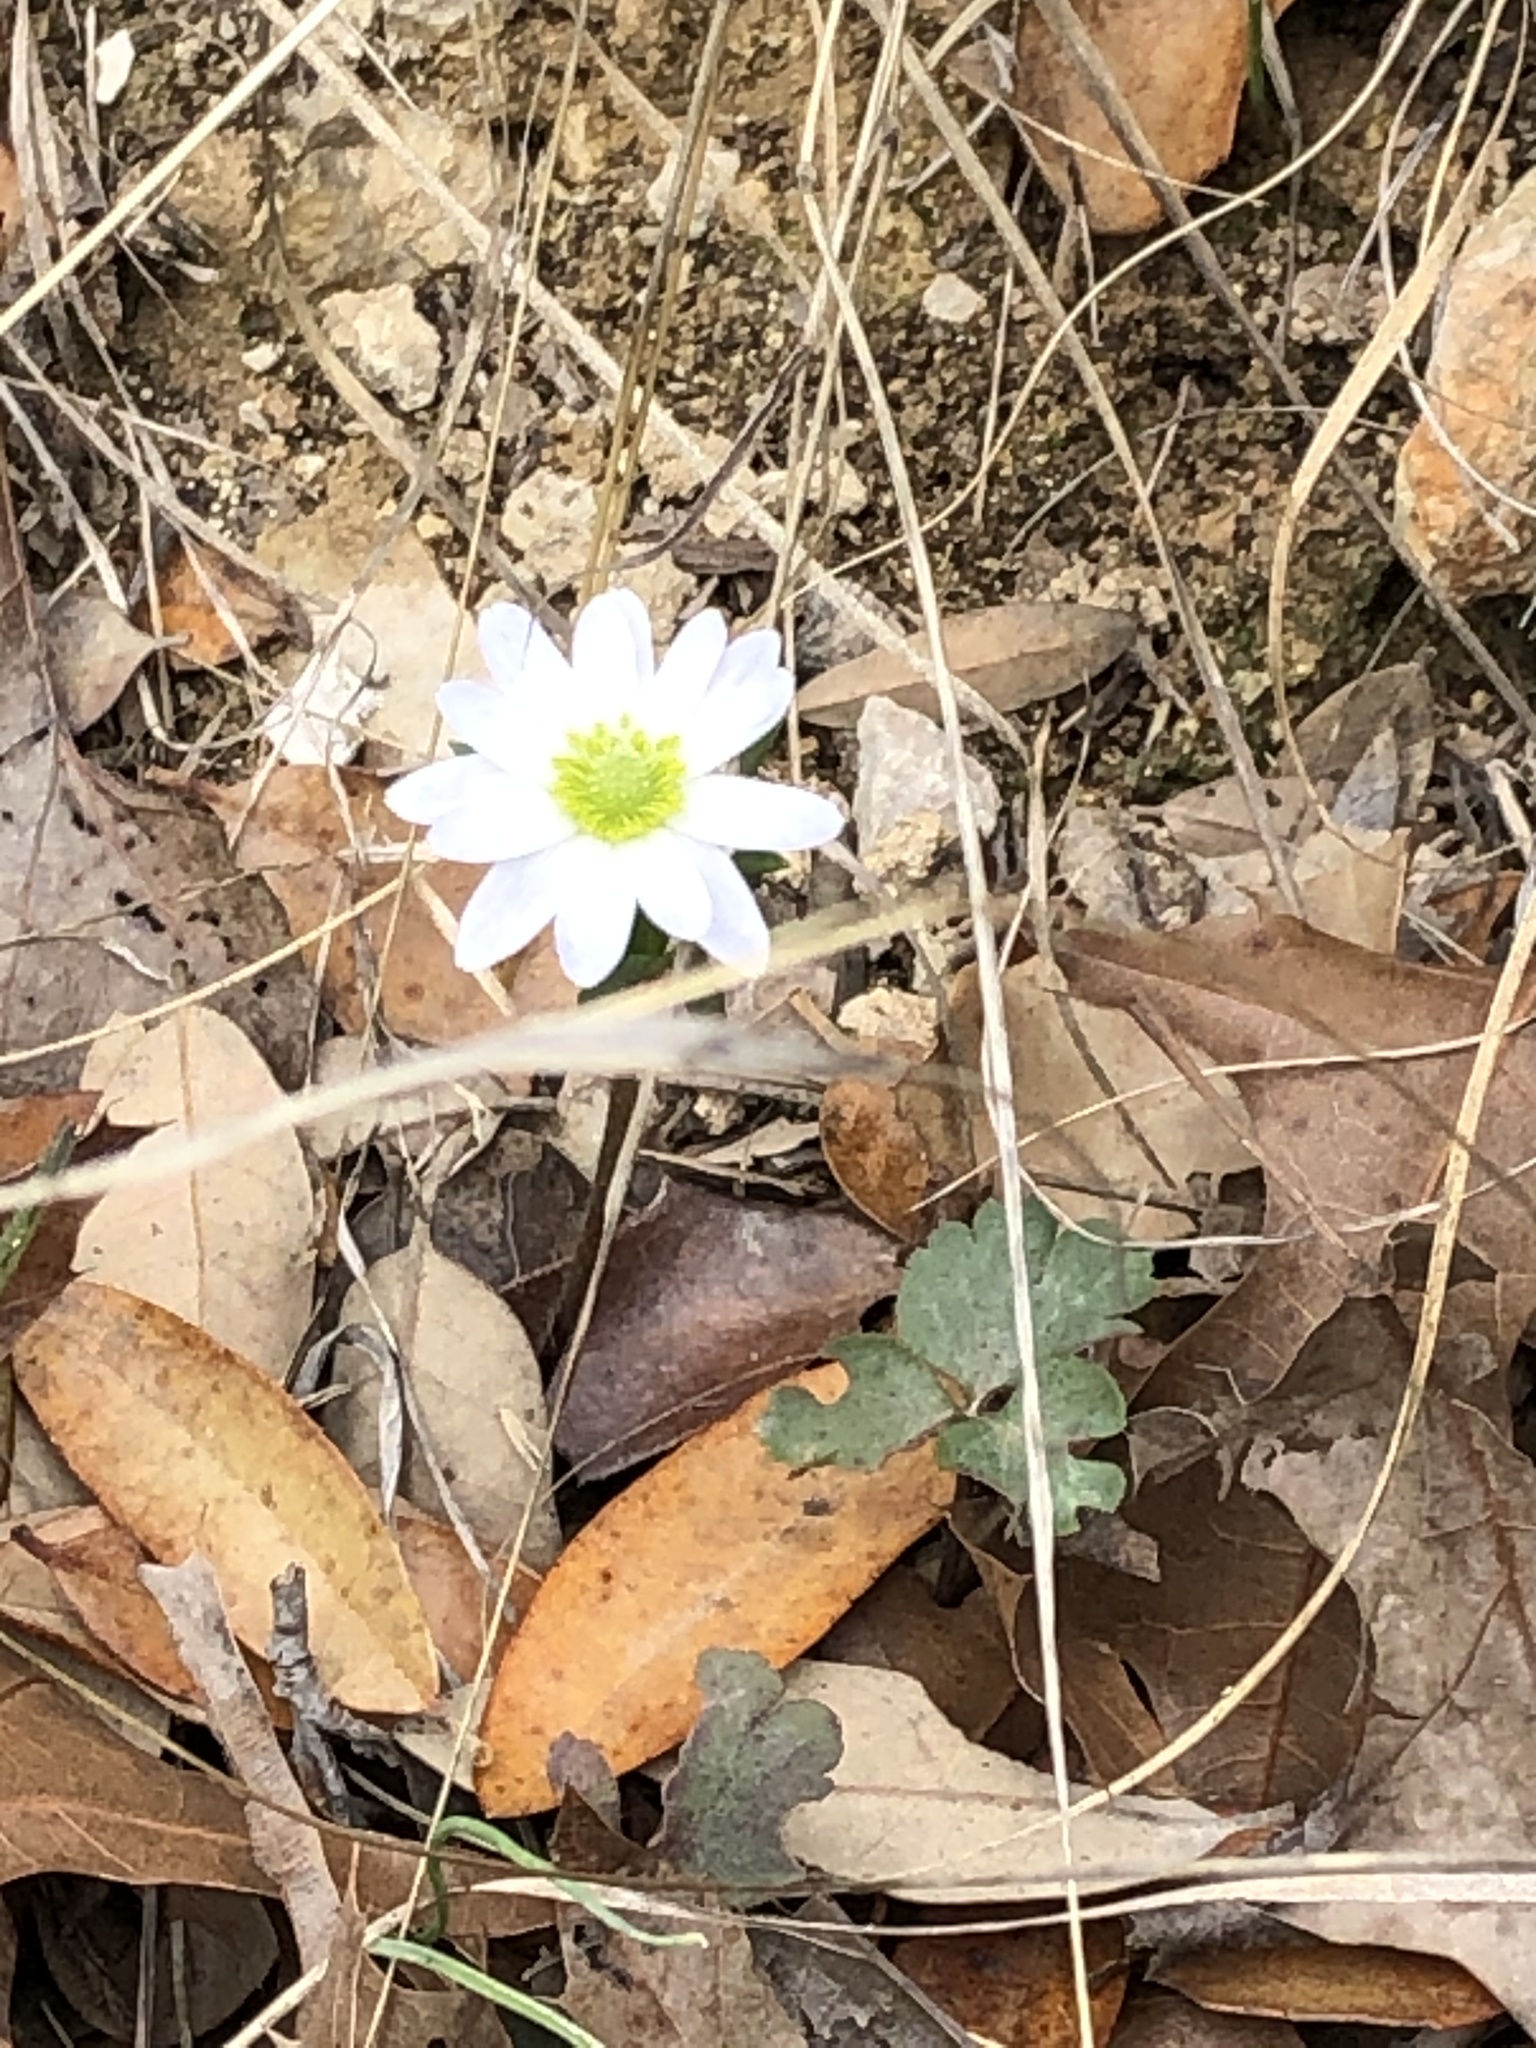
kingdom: Plantae
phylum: Tracheophyta
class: Magnoliopsida
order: Ranunculales
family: Ranunculaceae
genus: Anemone
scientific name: Anemone berlandieri
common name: Ten-petal anemone
